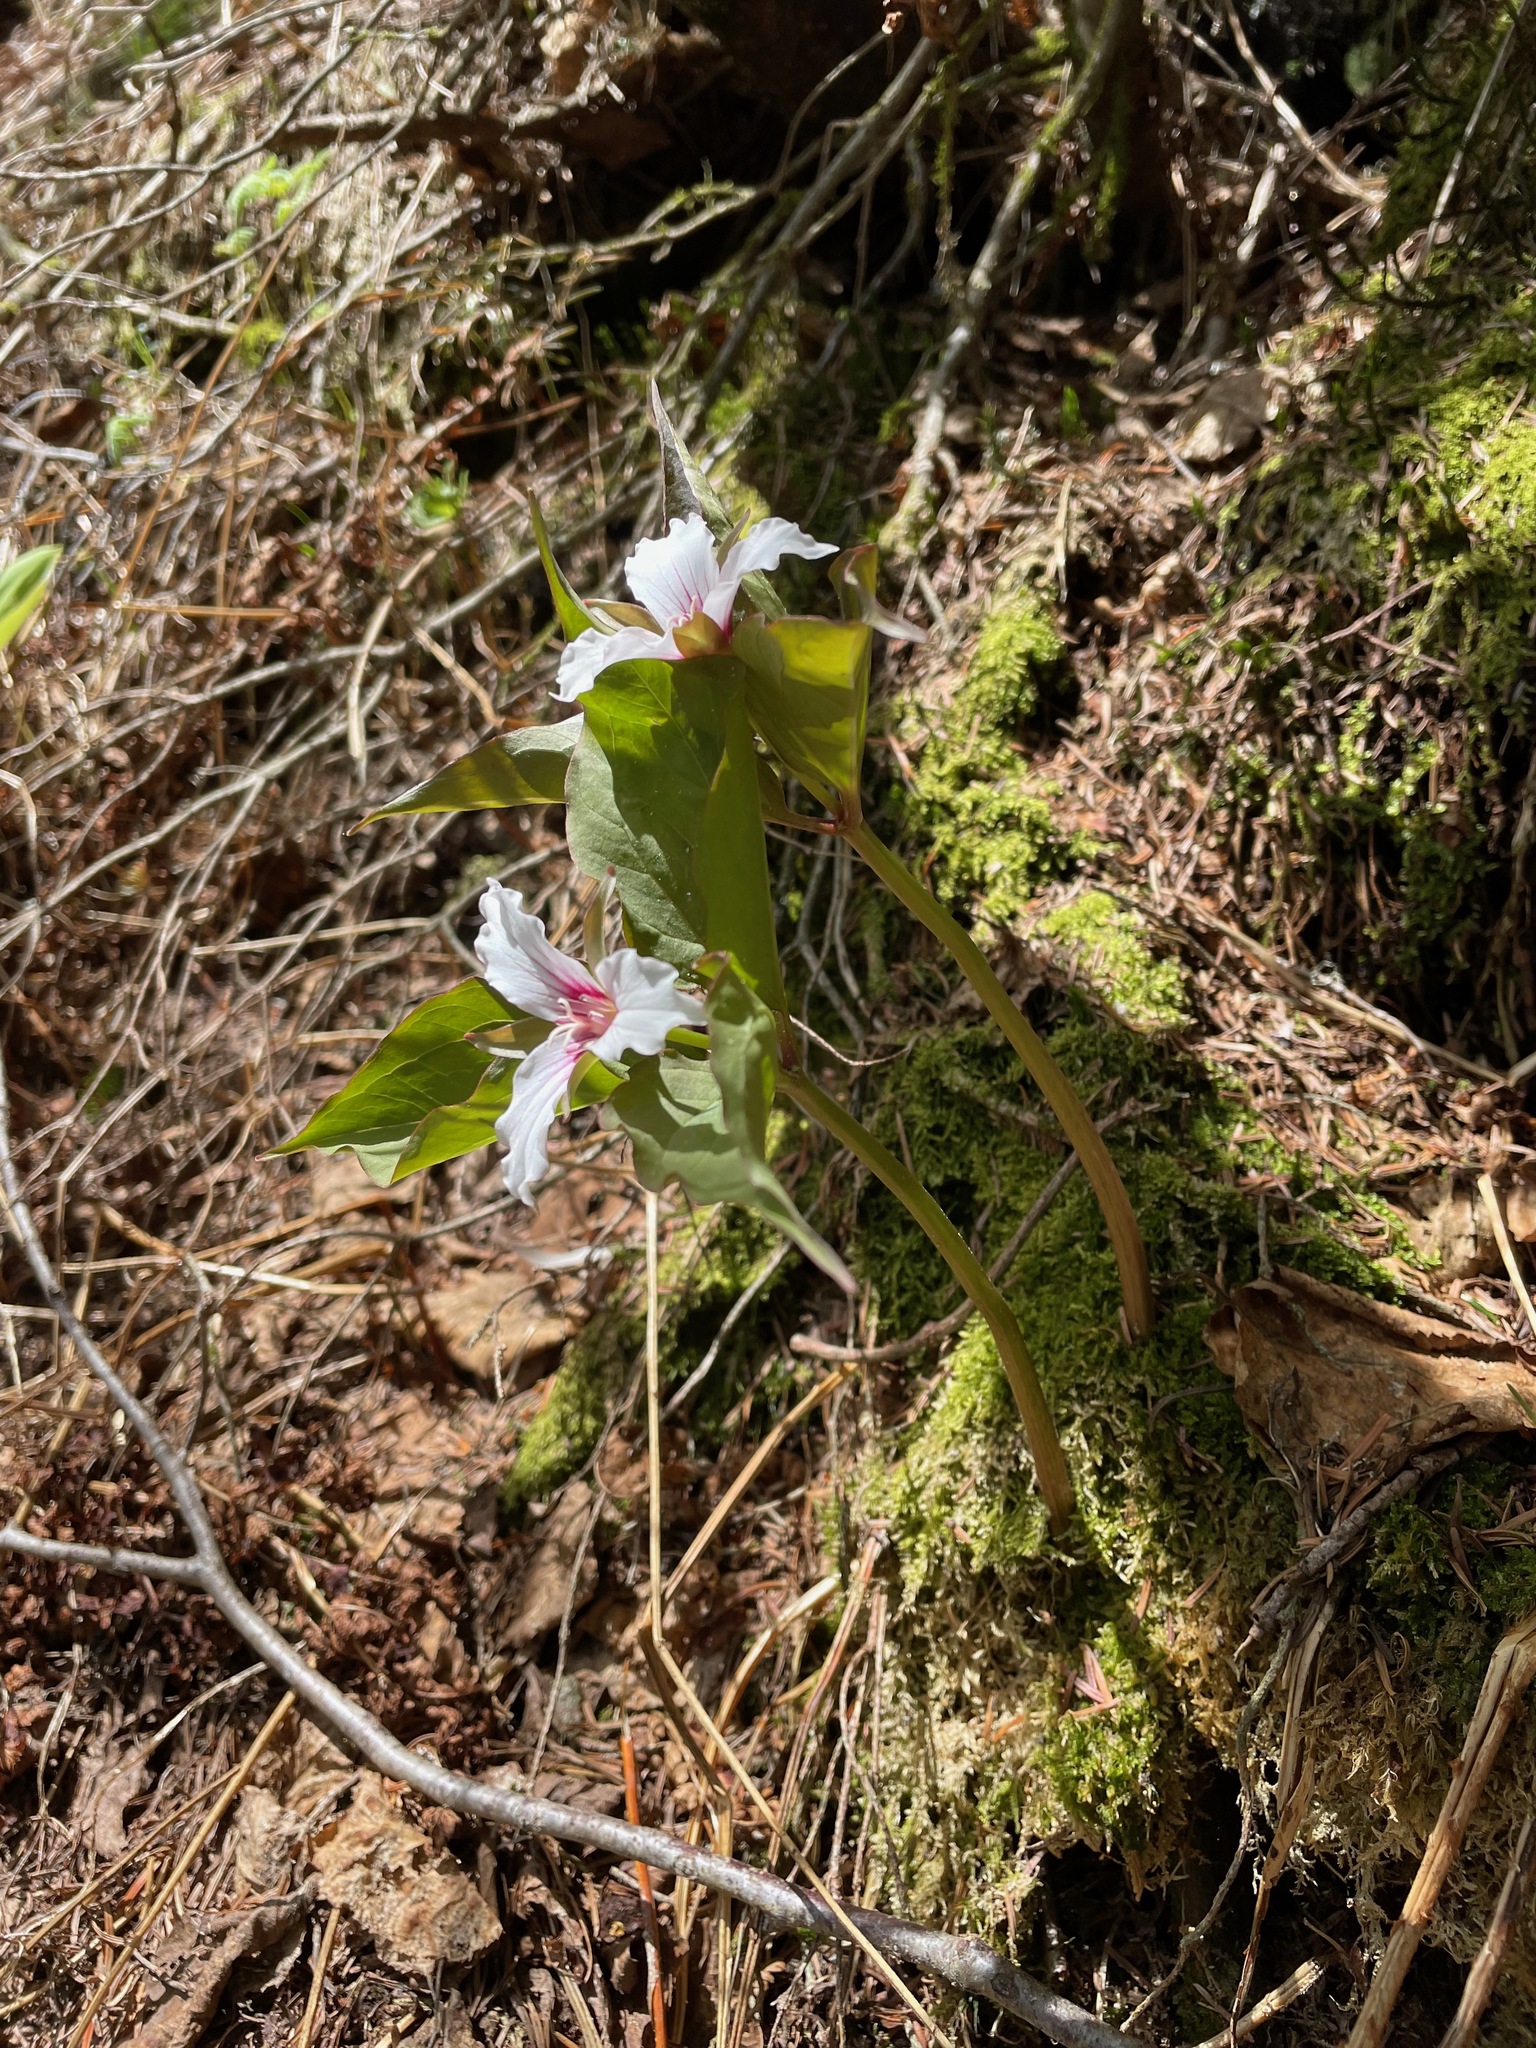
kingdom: Plantae
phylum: Tracheophyta
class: Liliopsida
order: Liliales
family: Melanthiaceae
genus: Trillium
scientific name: Trillium undulatum
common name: Paint trillium
